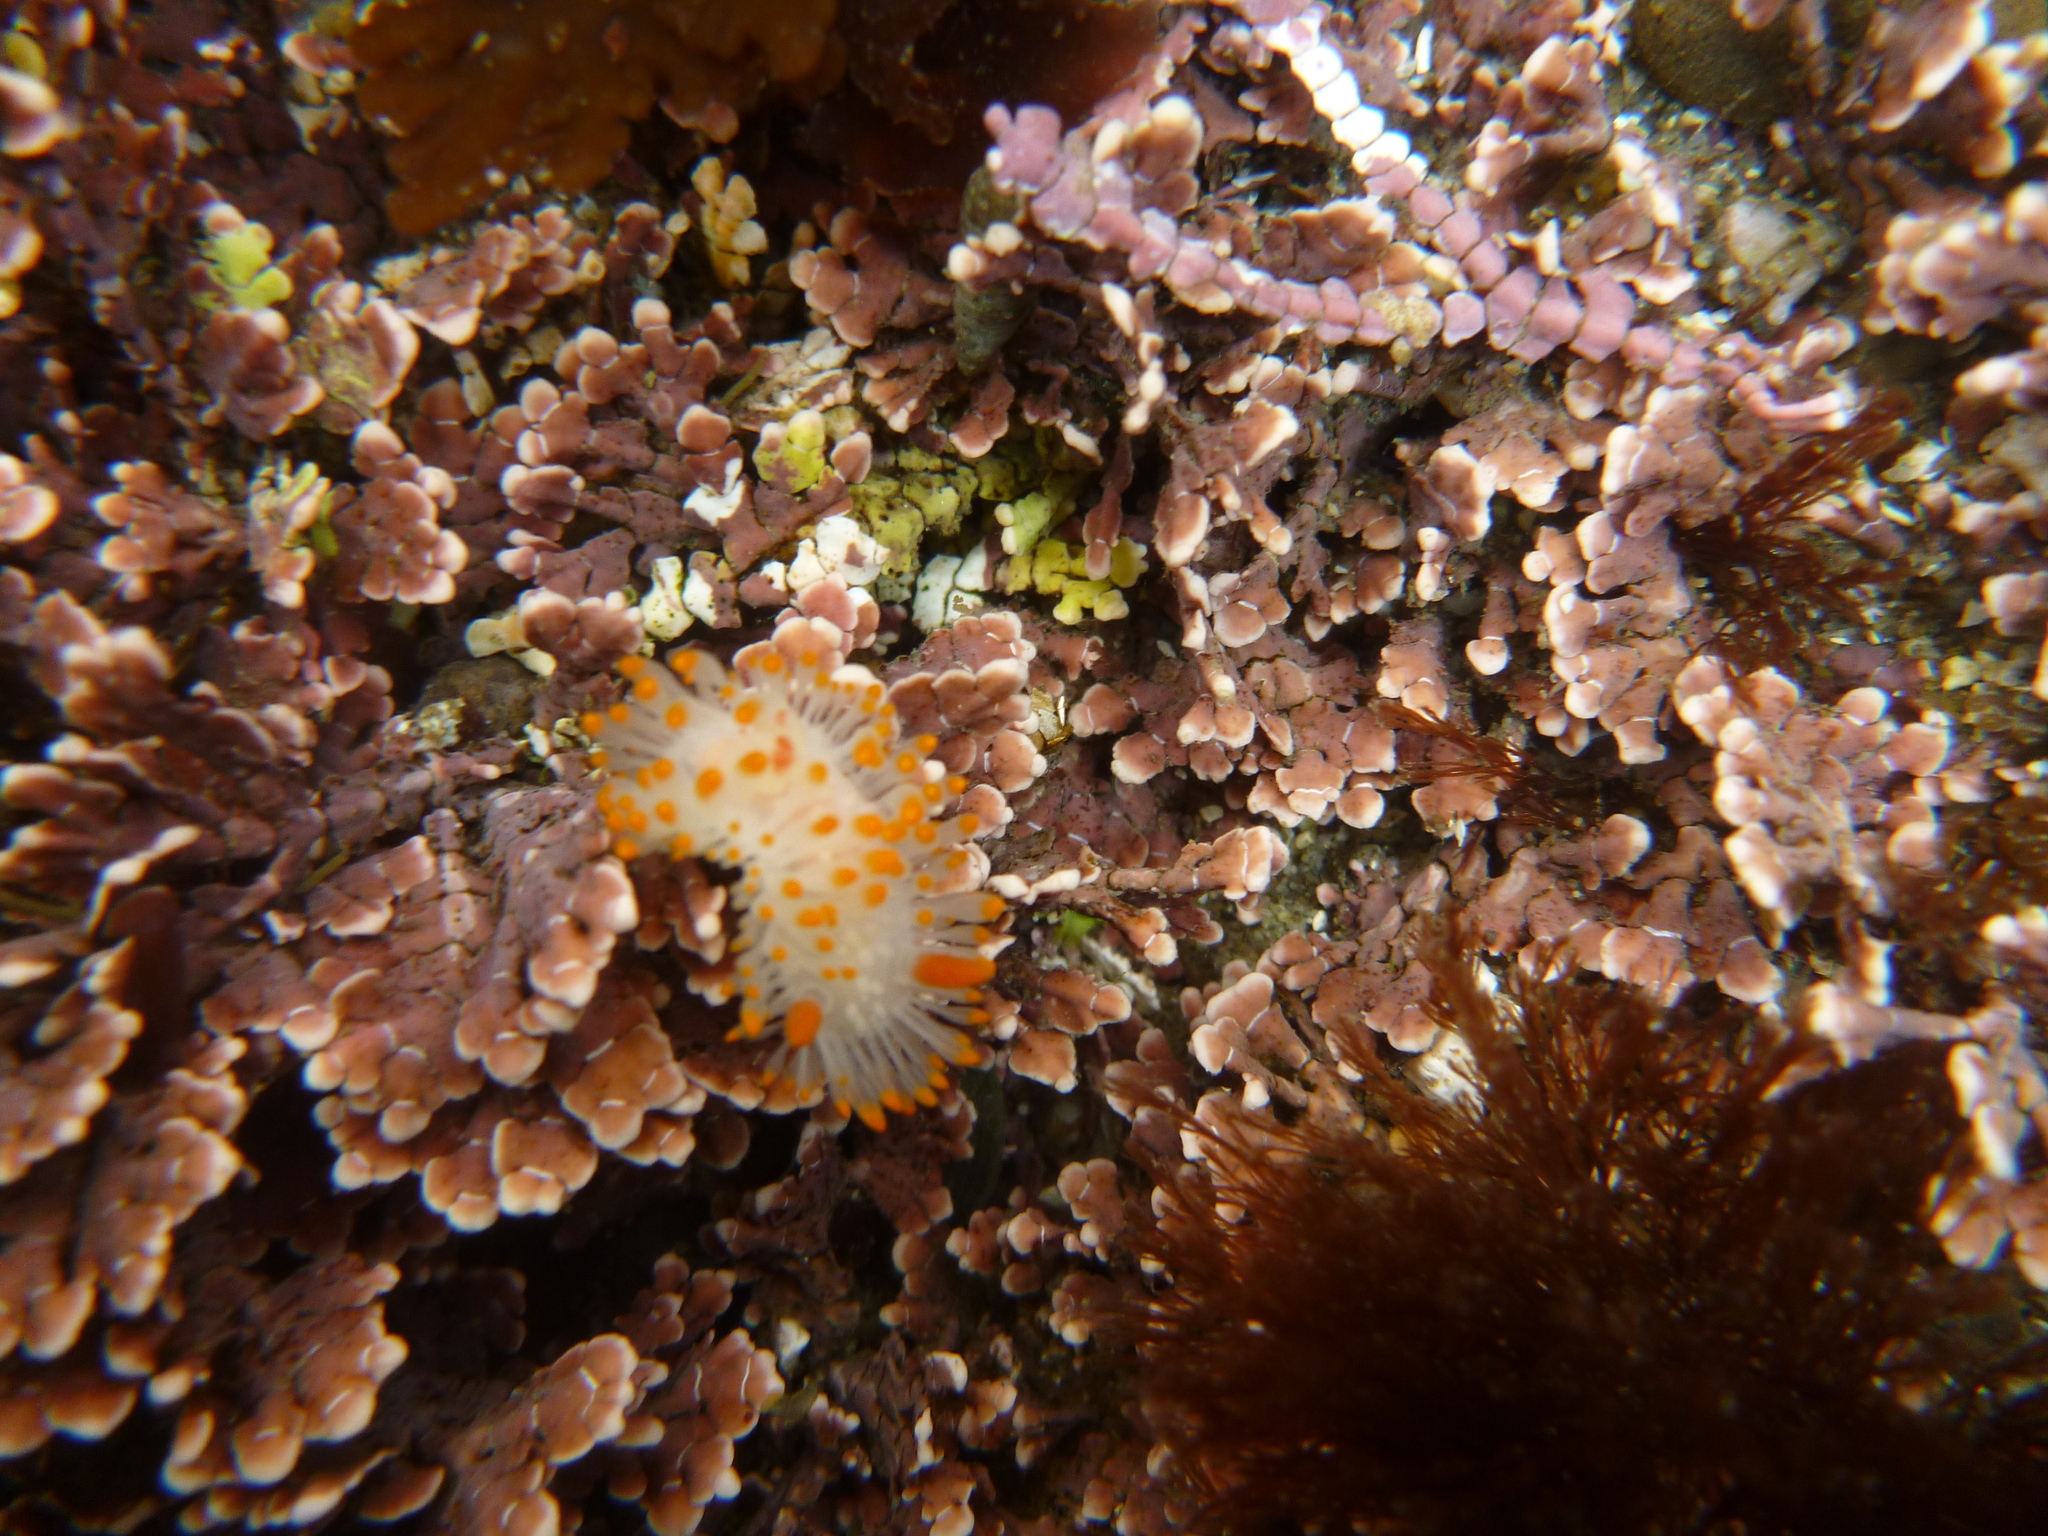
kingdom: Animalia
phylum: Mollusca
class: Gastropoda
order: Nudibranchia
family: Polyceridae
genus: Limacia
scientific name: Limacia cockerelli
